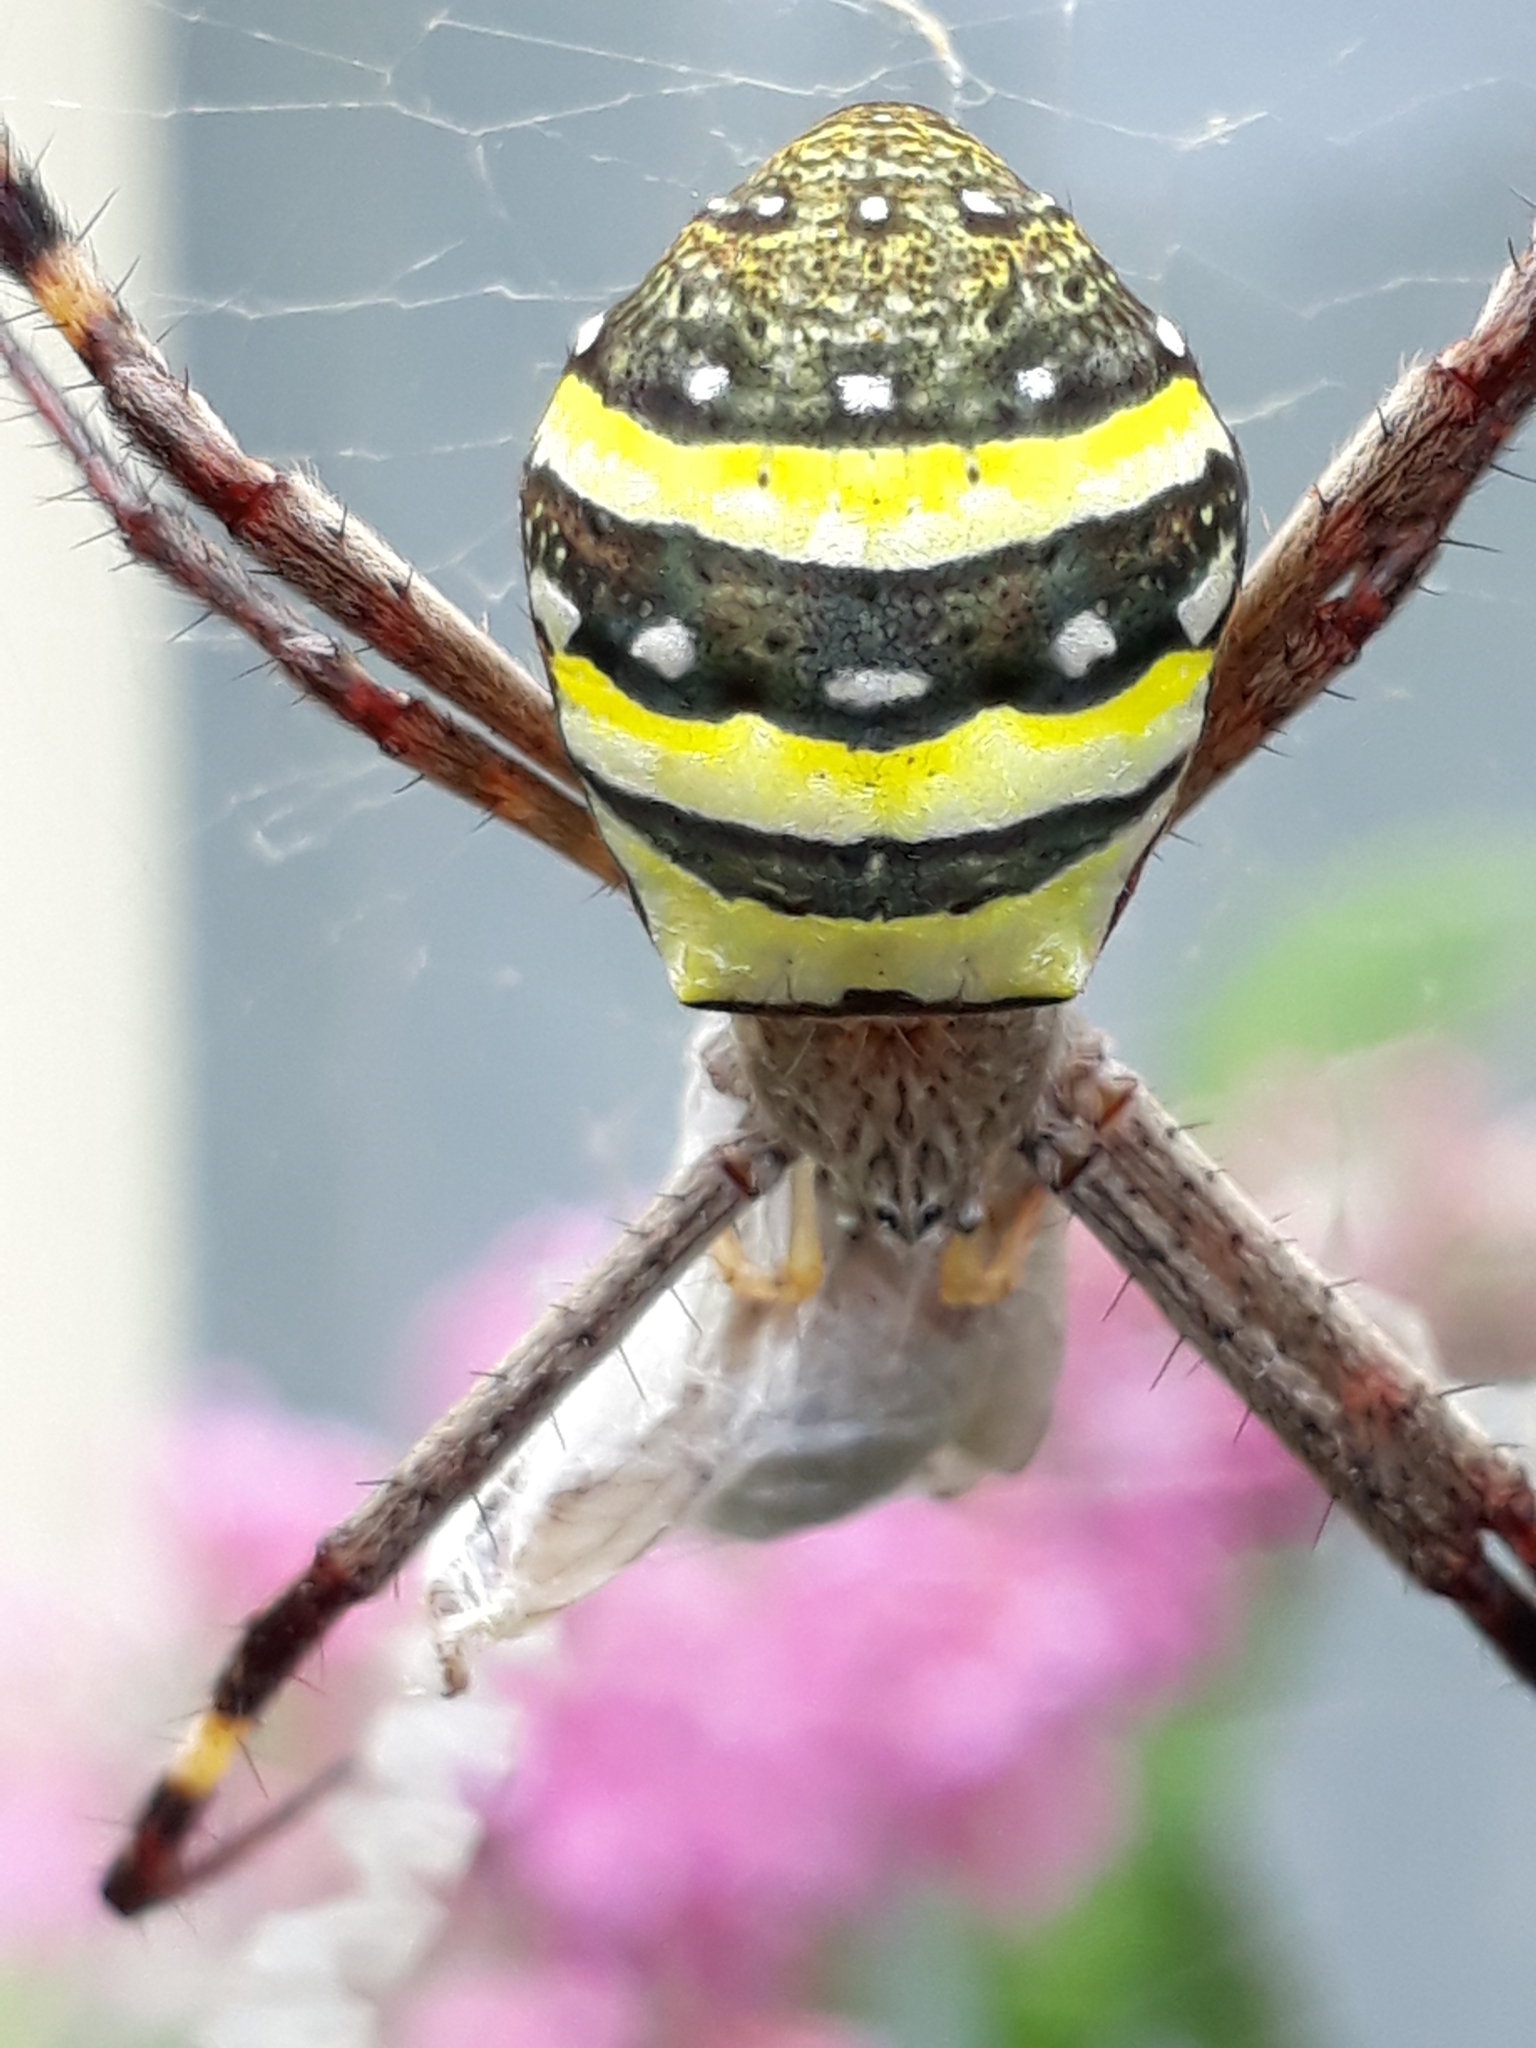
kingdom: Animalia
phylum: Arthropoda
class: Arachnida
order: Araneae
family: Araneidae
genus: Argiope
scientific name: Argiope keyserlingi
